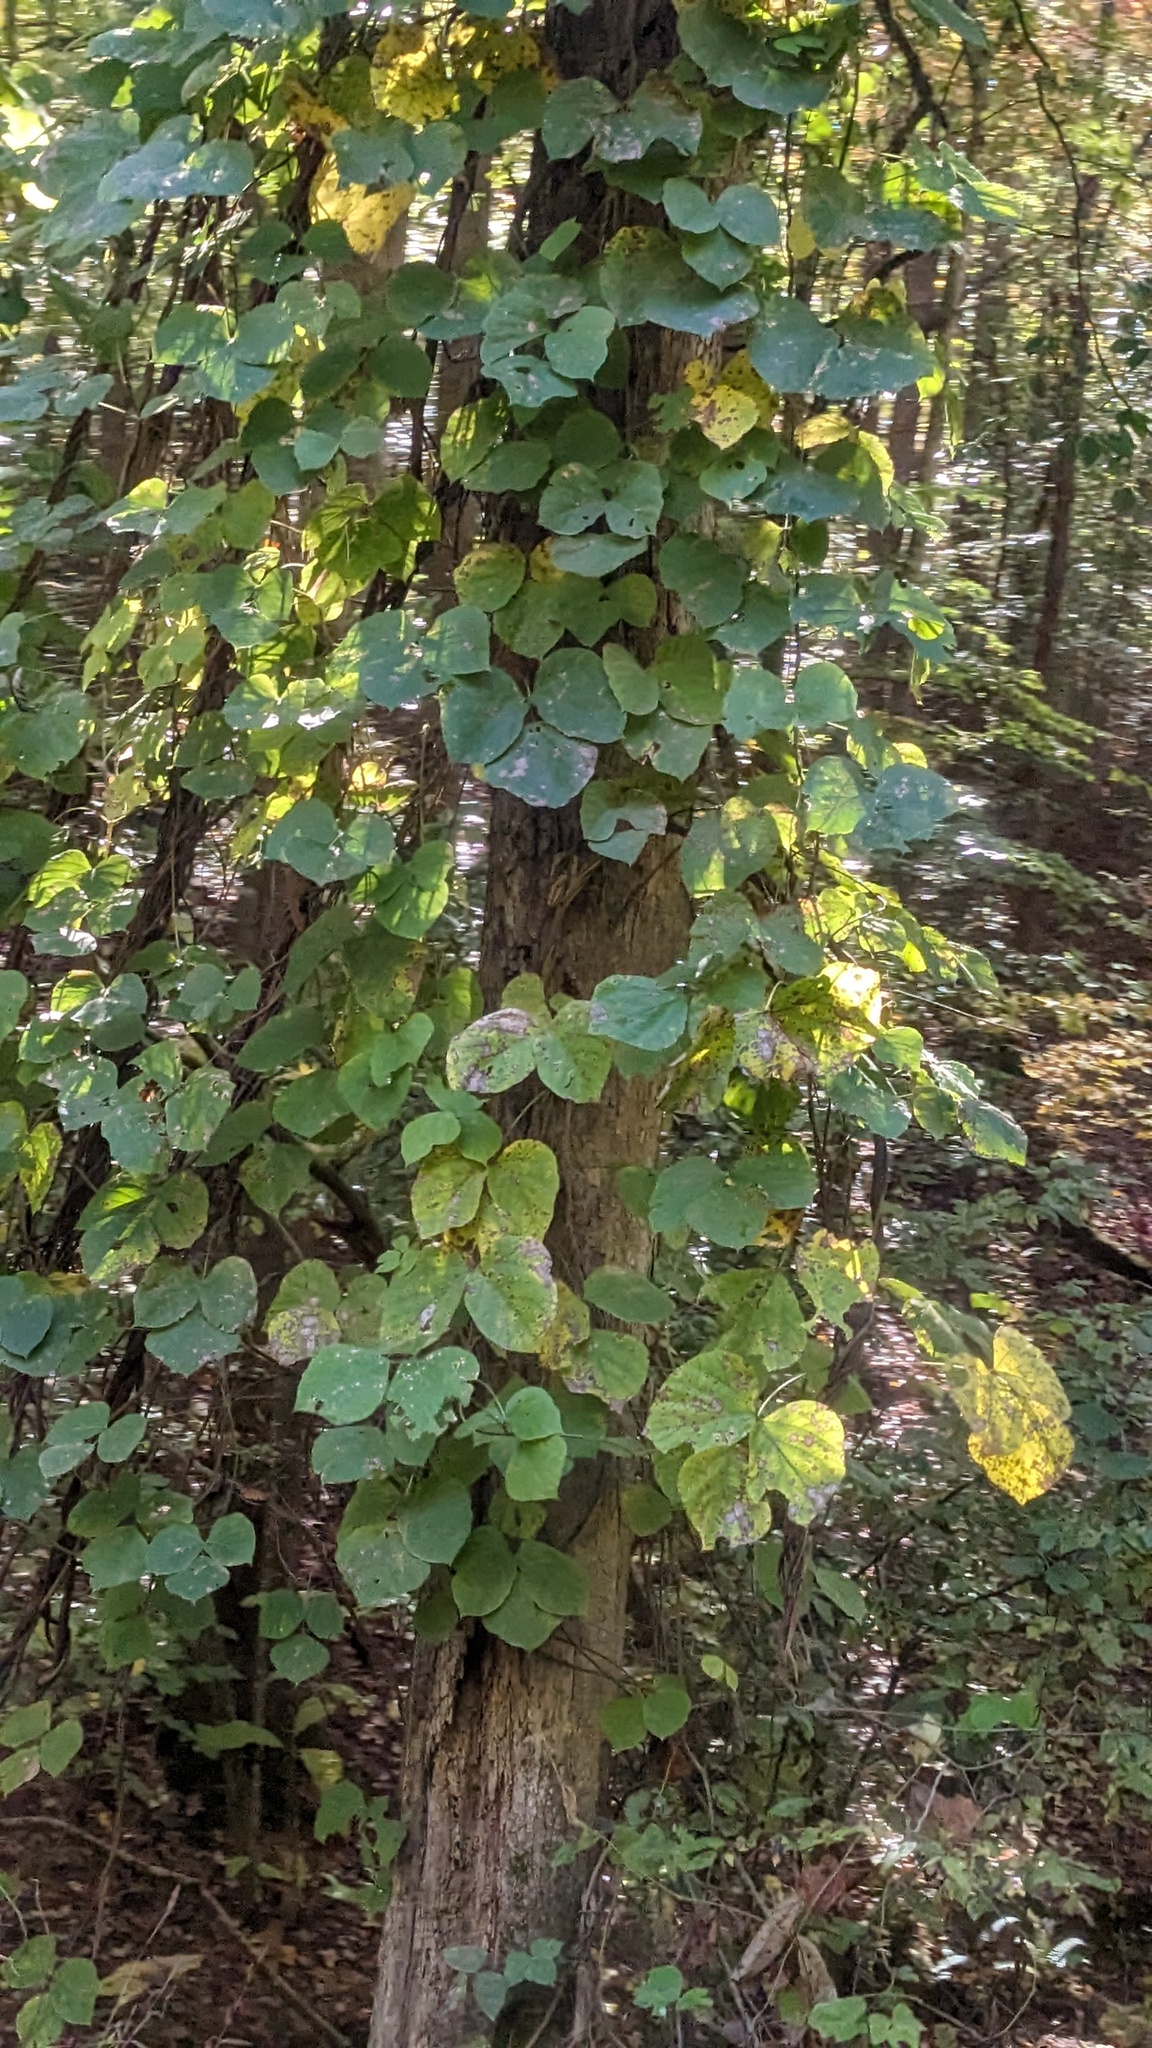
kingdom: Plantae
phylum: Tracheophyta
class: Magnoliopsida
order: Fabales
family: Fabaceae
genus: Pueraria
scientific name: Pueraria montana
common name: Kudzu
